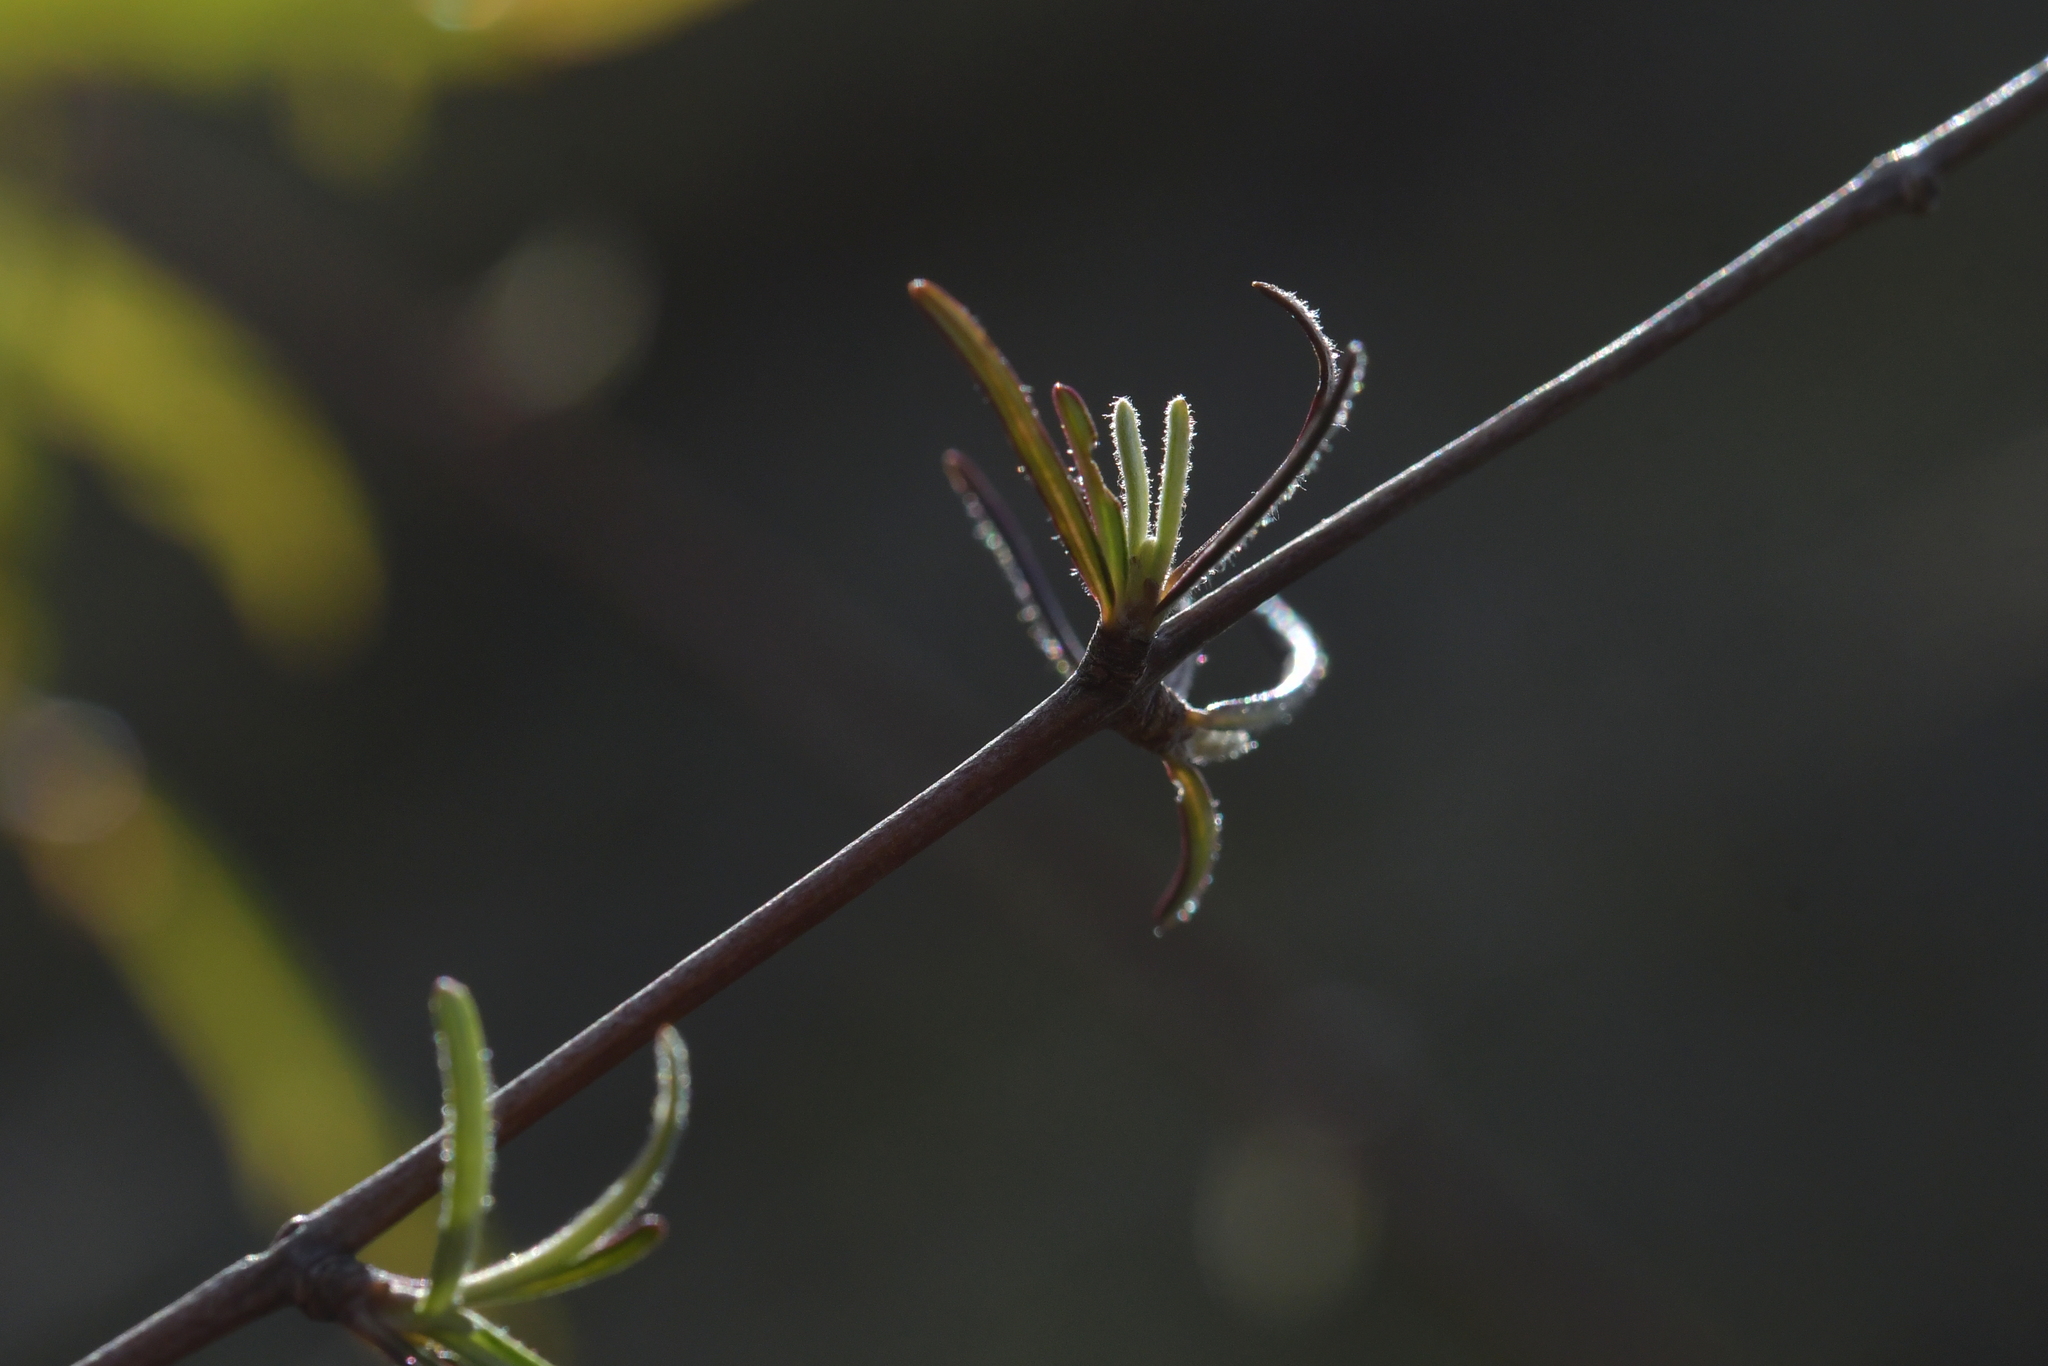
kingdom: Plantae
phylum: Tracheophyta
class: Magnoliopsida
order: Asterales
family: Asteraceae
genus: Olearia
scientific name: Olearia lineata
